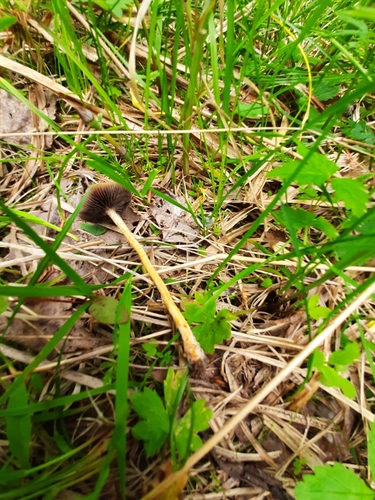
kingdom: Fungi
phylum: Basidiomycota
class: Agaricomycetes
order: Agaricales
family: Strophariaceae
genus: Leratiomyces
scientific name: Leratiomyces magnivelaris
